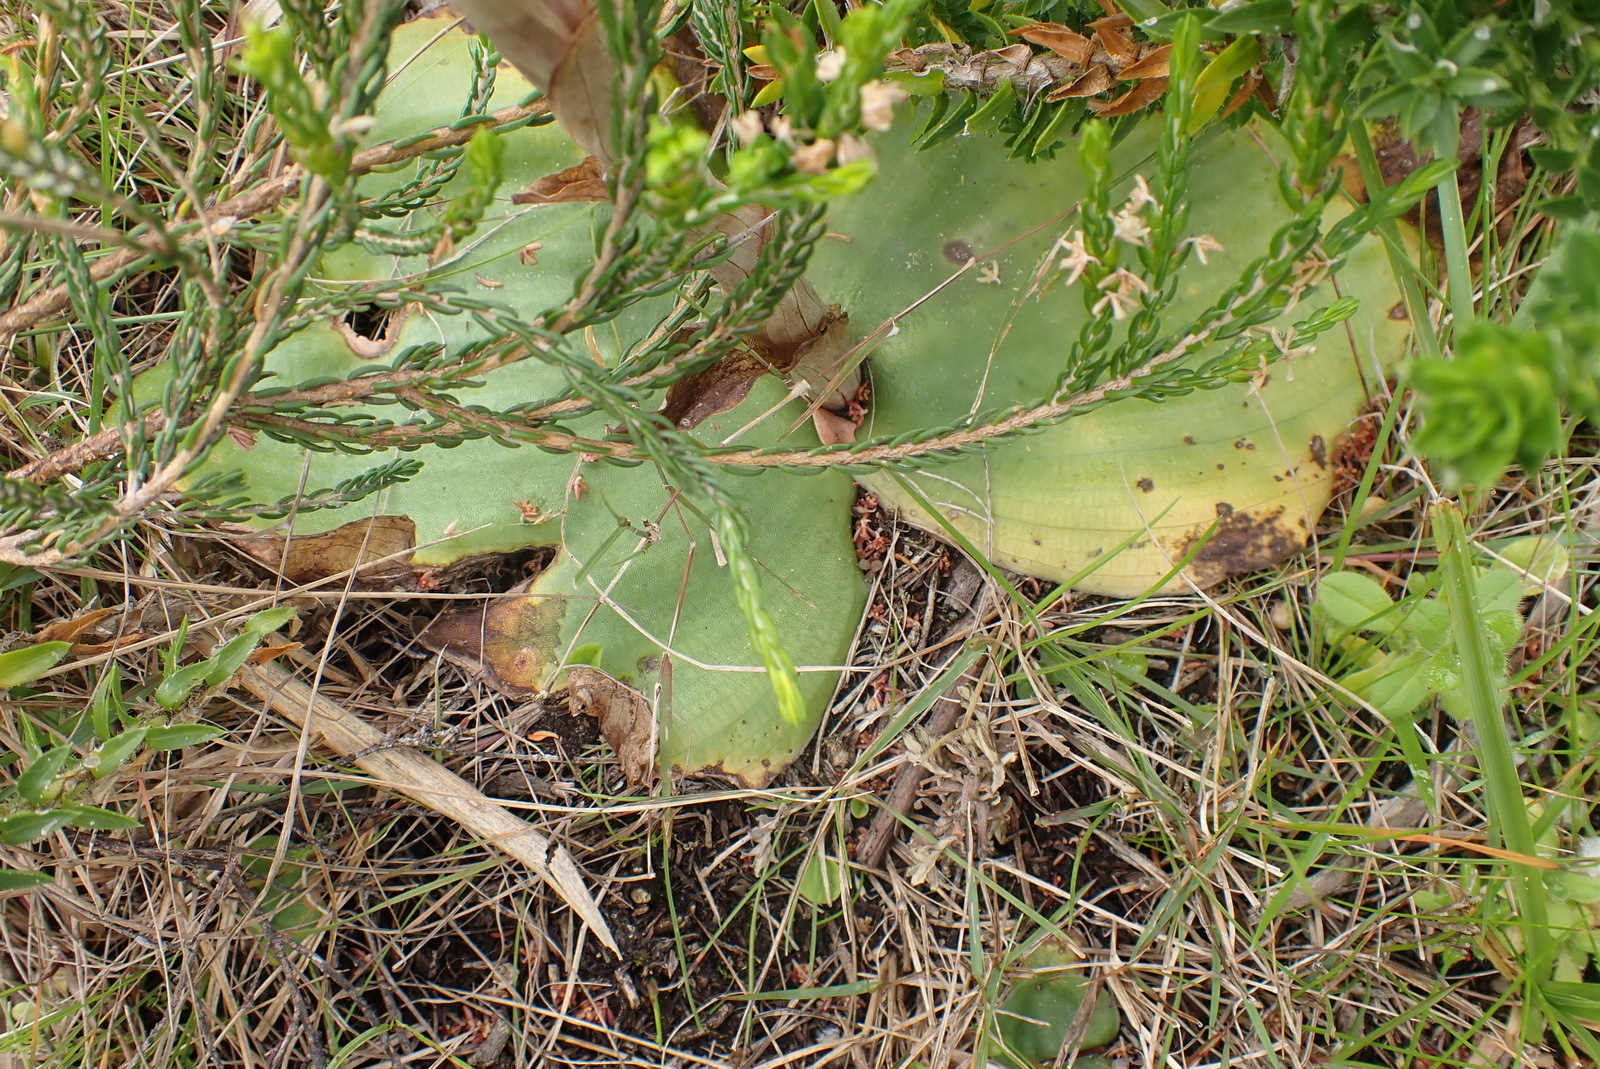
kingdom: Plantae
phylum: Tracheophyta
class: Liliopsida
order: Asparagales
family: Orchidaceae
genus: Satyrium
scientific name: Satyrium princeps
